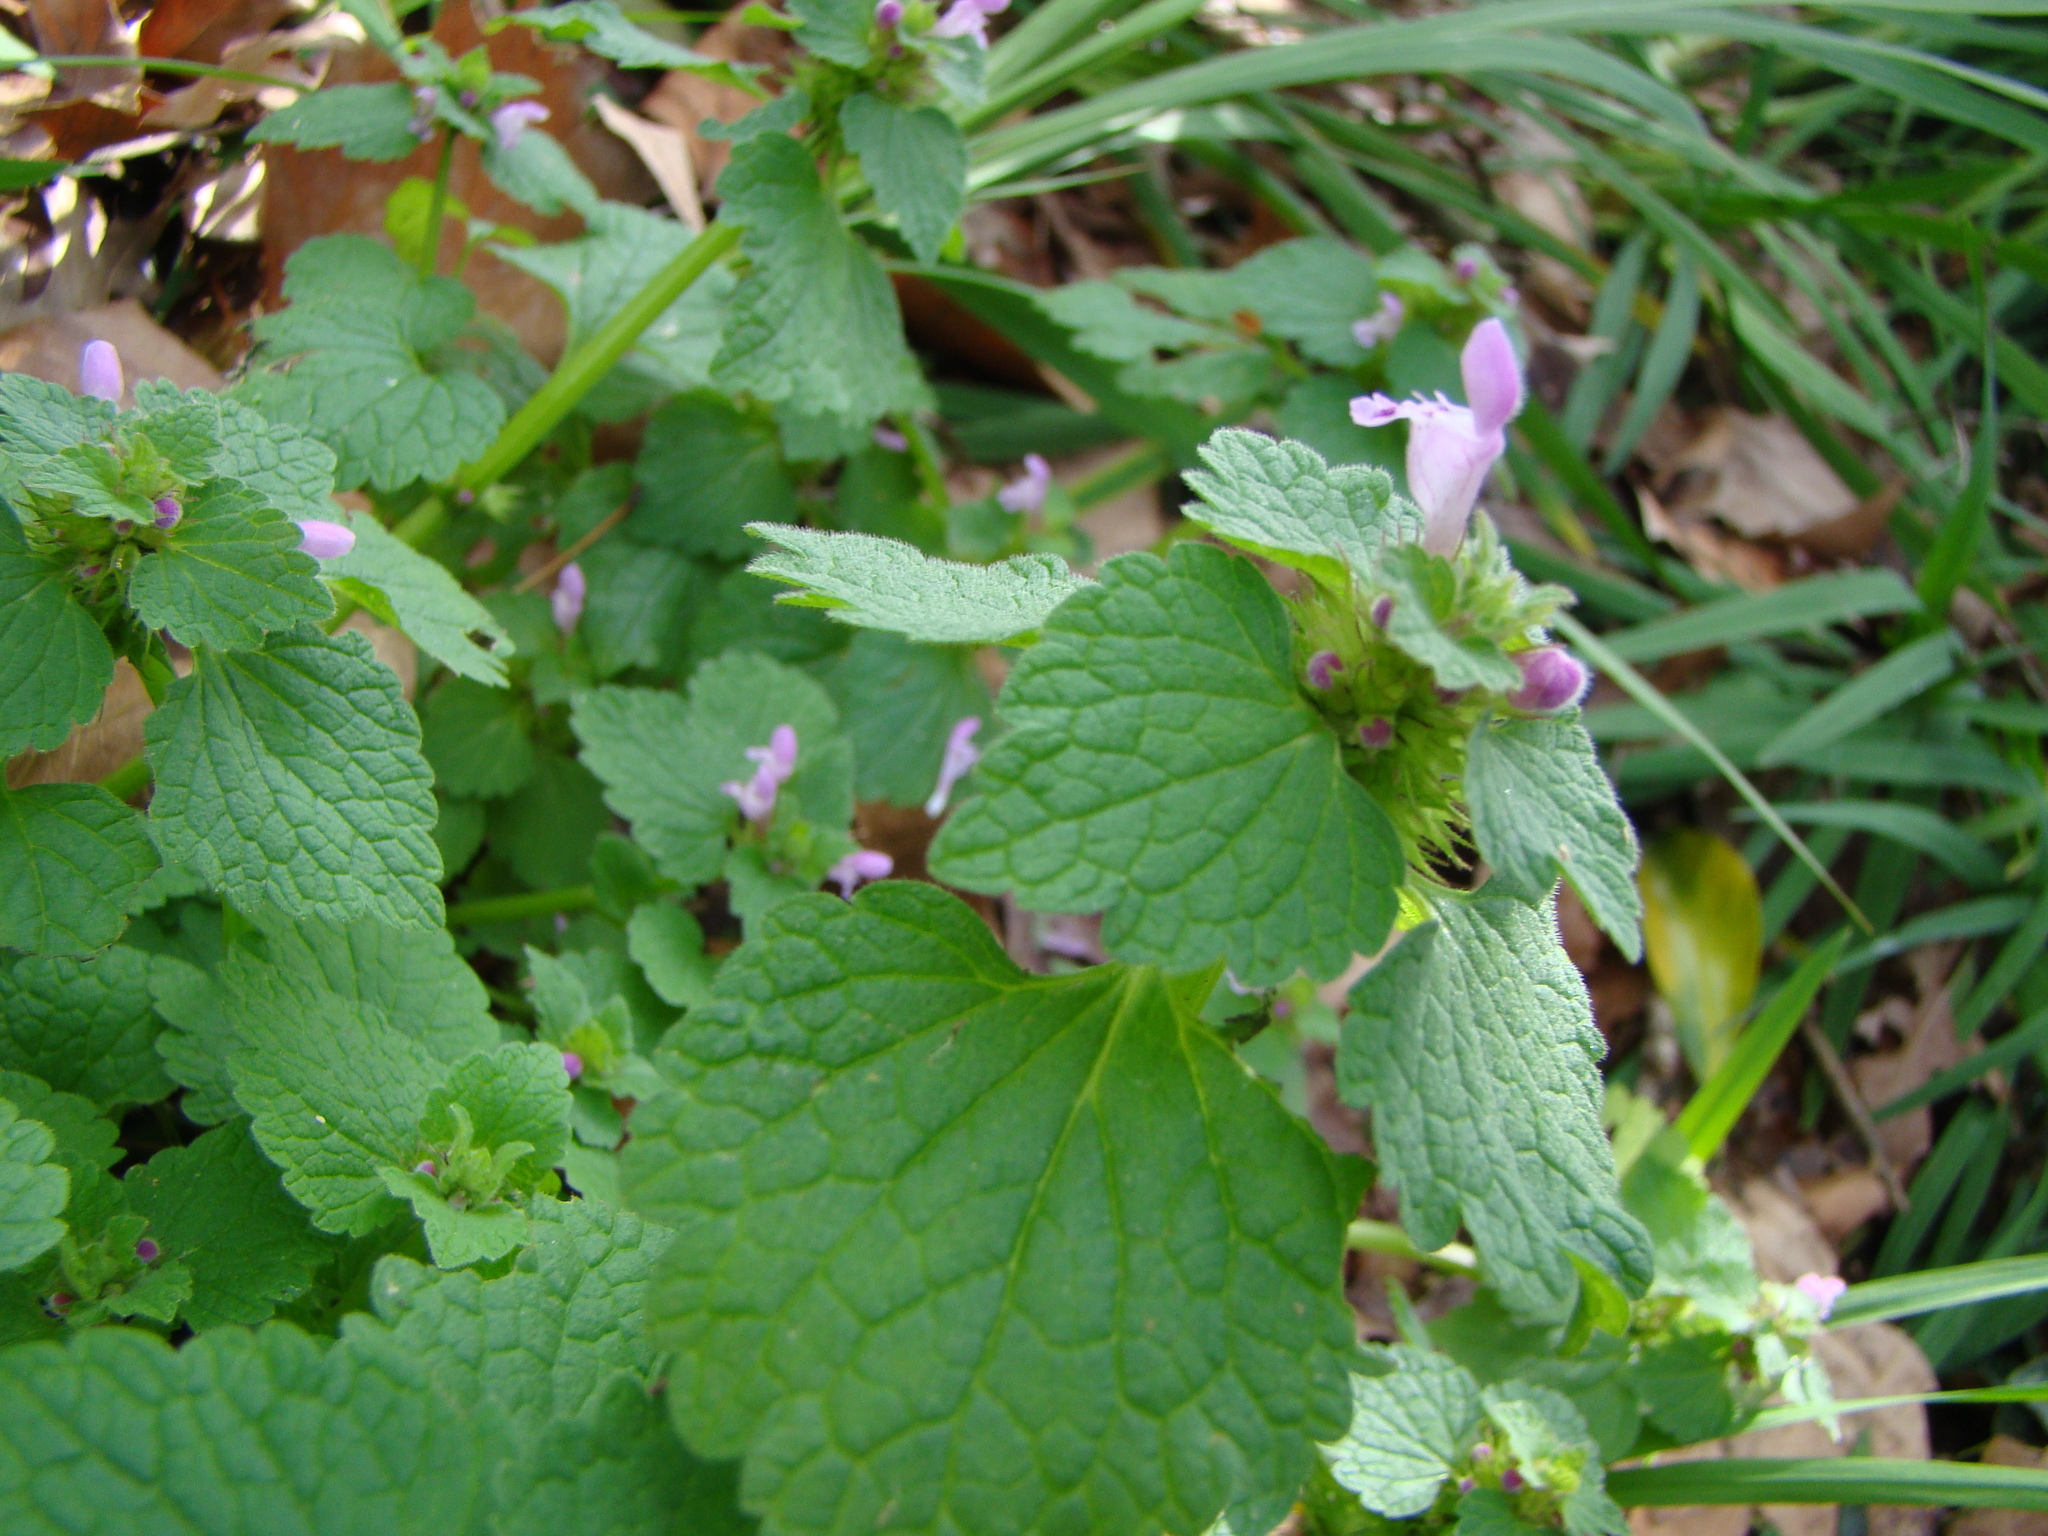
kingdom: Plantae
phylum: Tracheophyta
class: Magnoliopsida
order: Lamiales
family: Lamiaceae
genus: Lamium
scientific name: Lamium purpureum
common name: Red dead-nettle
